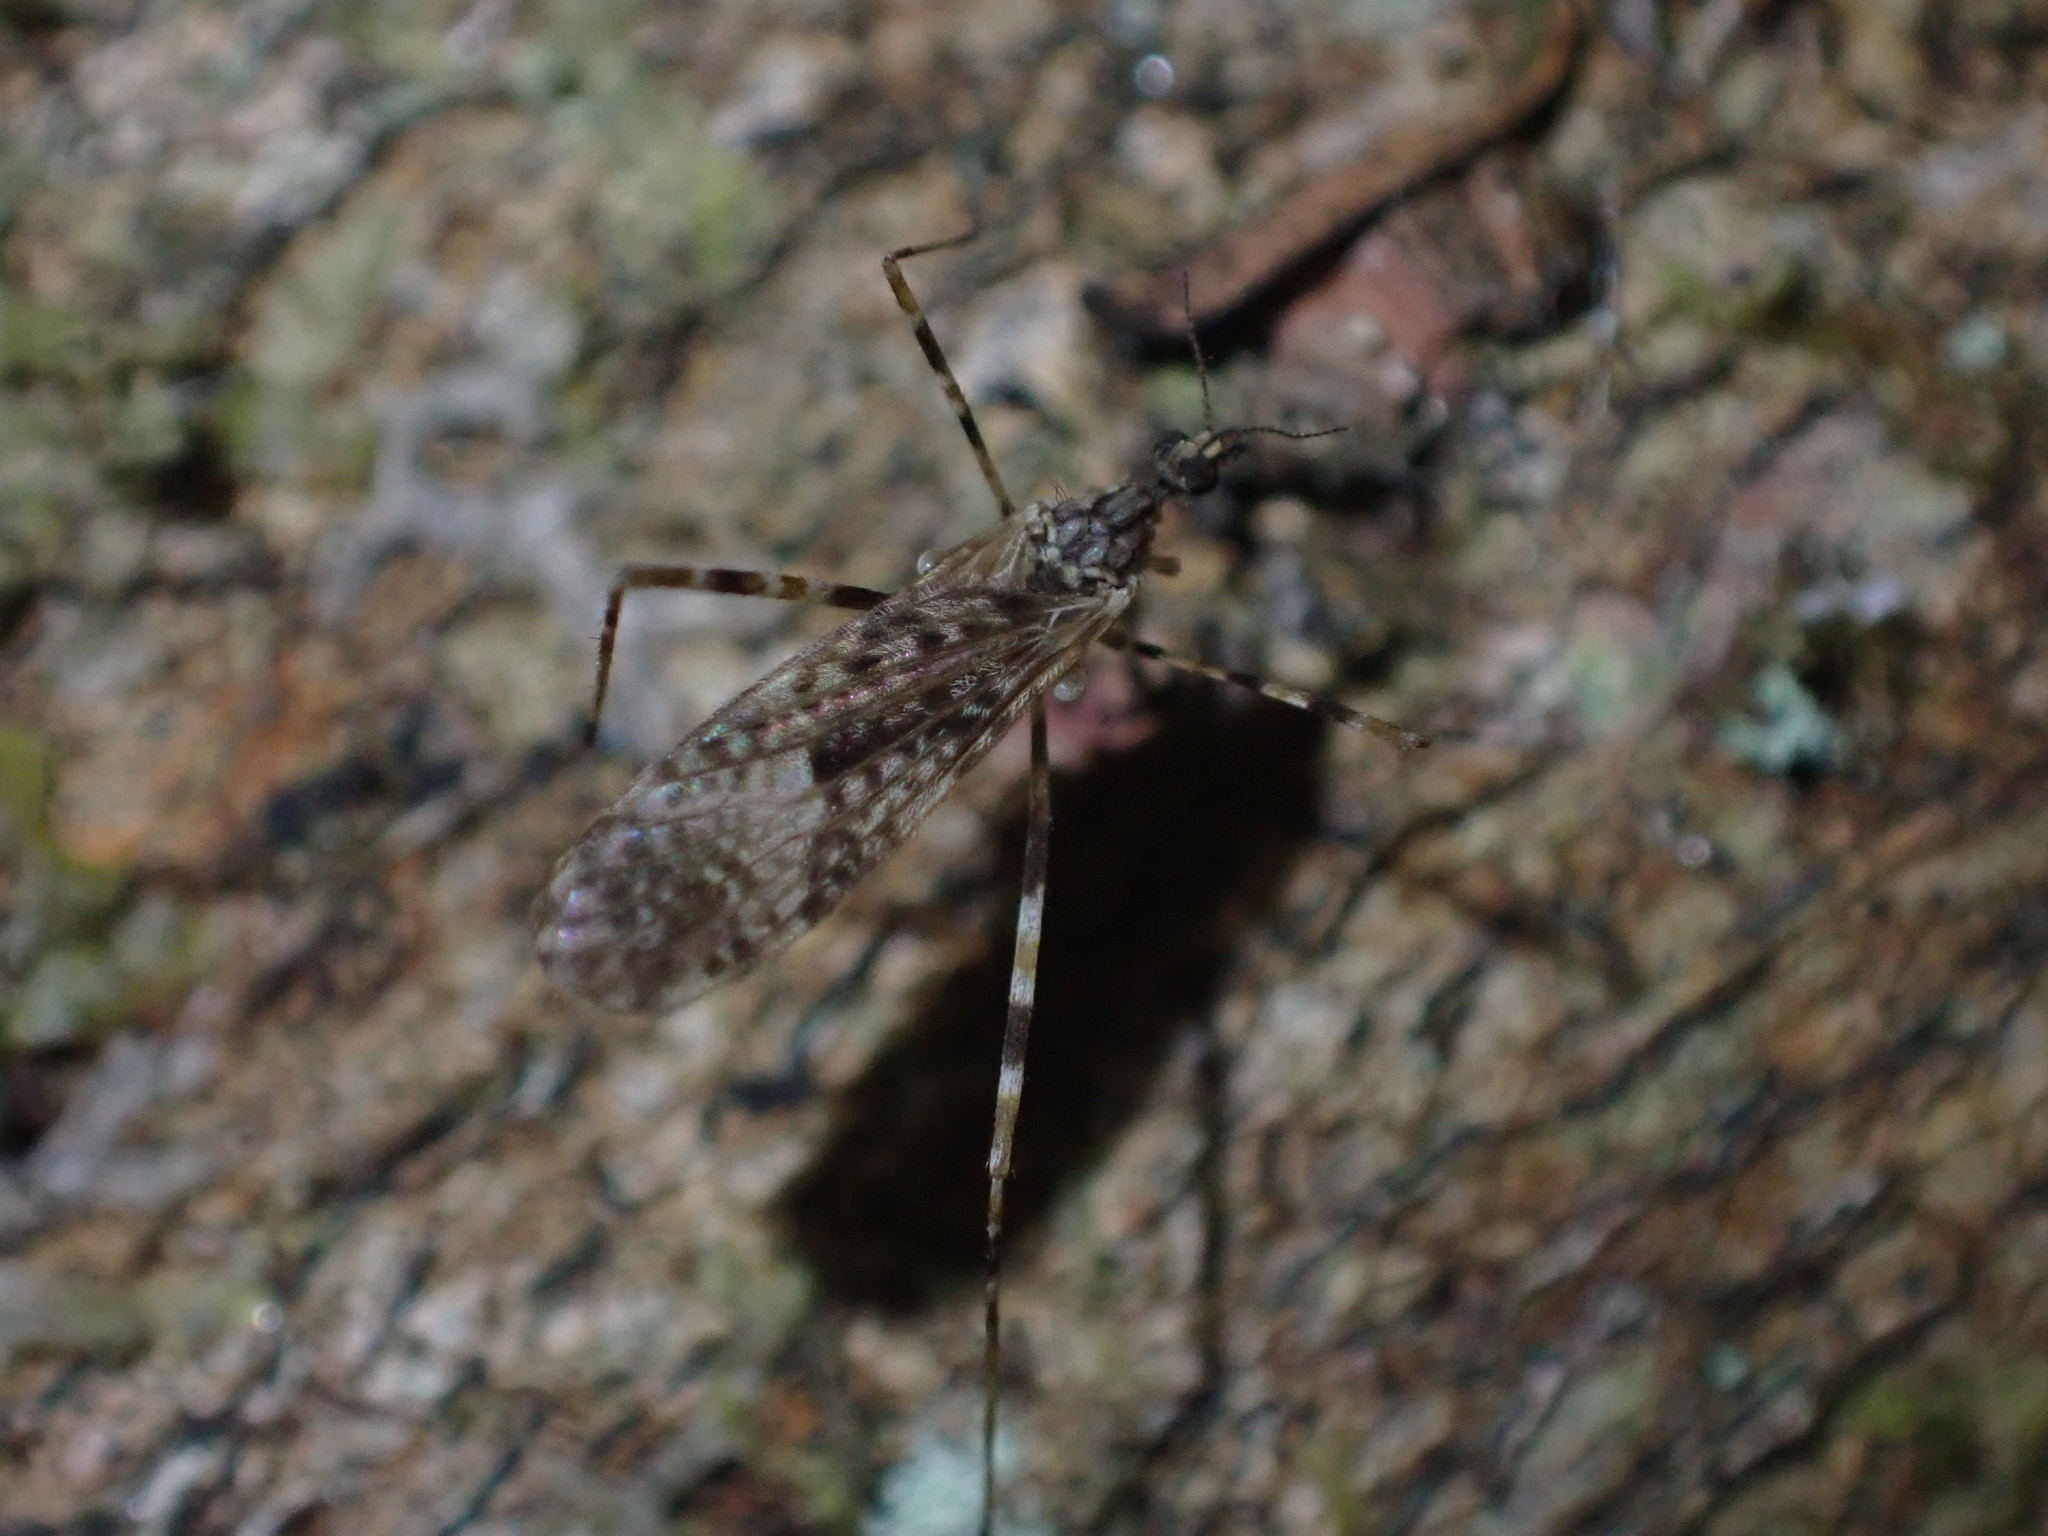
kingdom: Animalia
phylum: Arthropoda
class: Insecta
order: Diptera
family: Limoniidae
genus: Amphineurus
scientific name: Amphineurus hudsoni
